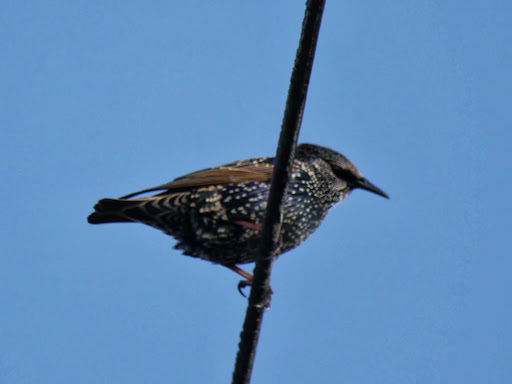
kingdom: Animalia
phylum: Chordata
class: Aves
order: Passeriformes
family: Sturnidae
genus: Sturnus
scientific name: Sturnus vulgaris
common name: Common starling
